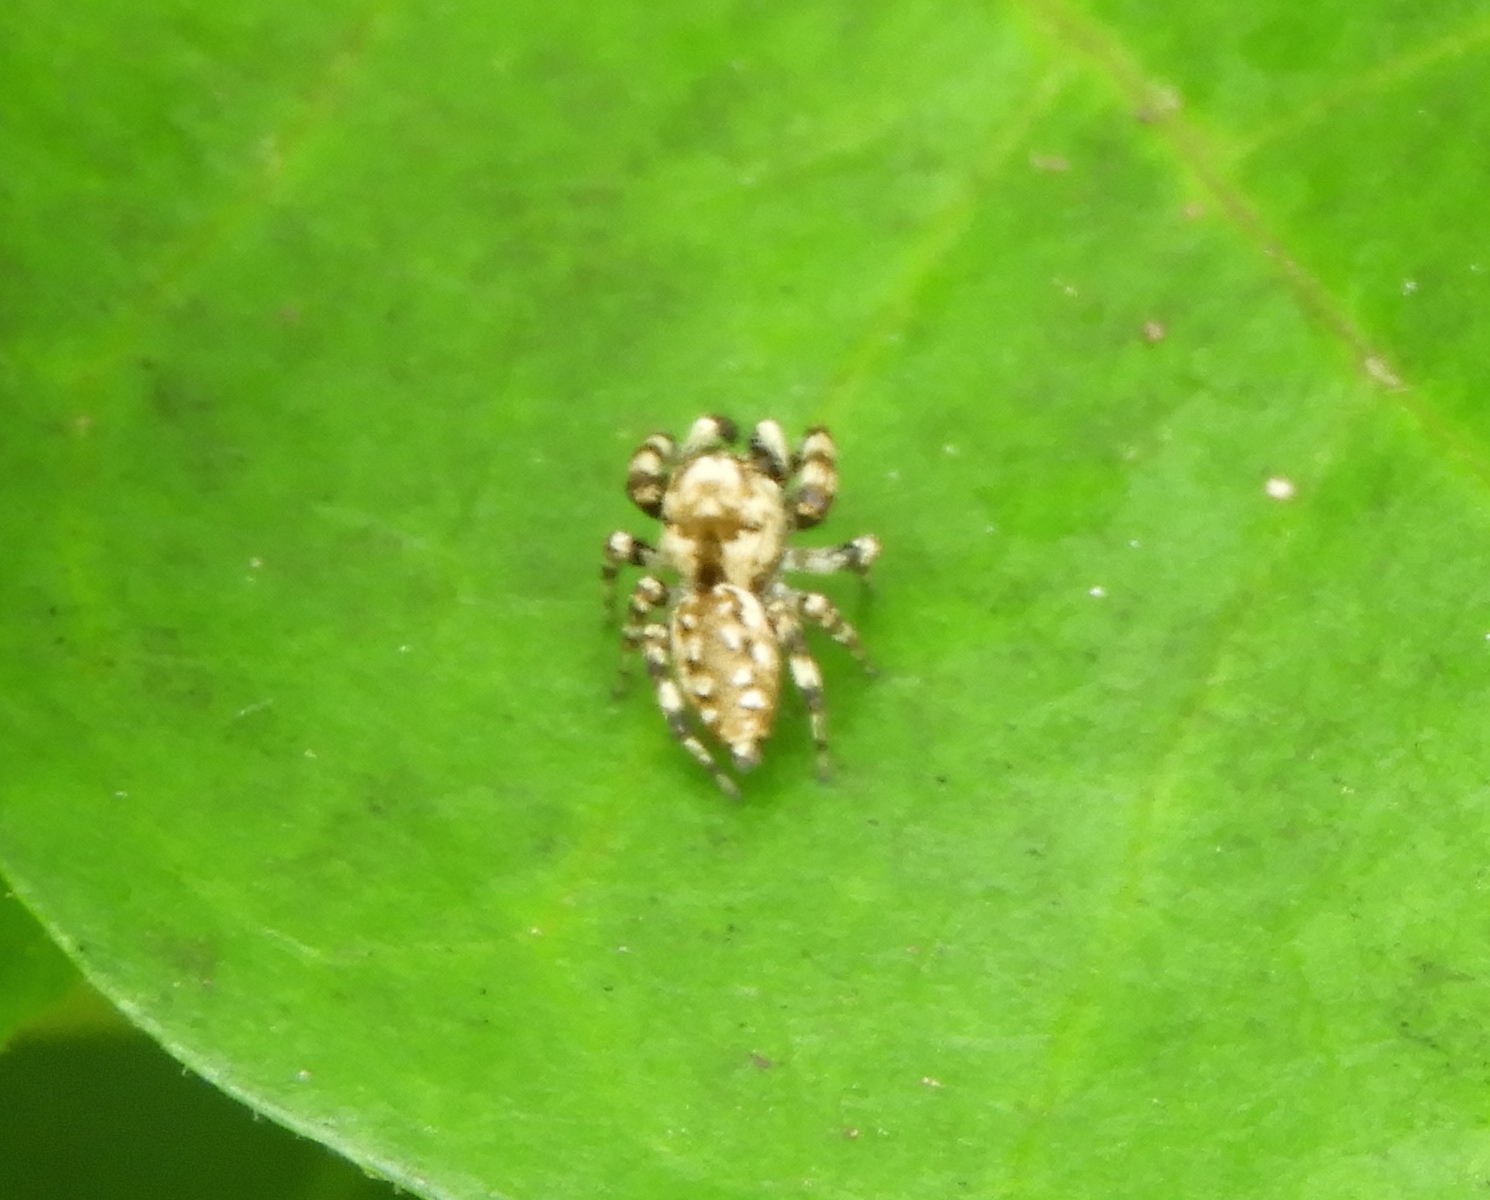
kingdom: Animalia
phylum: Arthropoda
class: Arachnida
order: Araneae
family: Salticidae
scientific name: Salticidae
